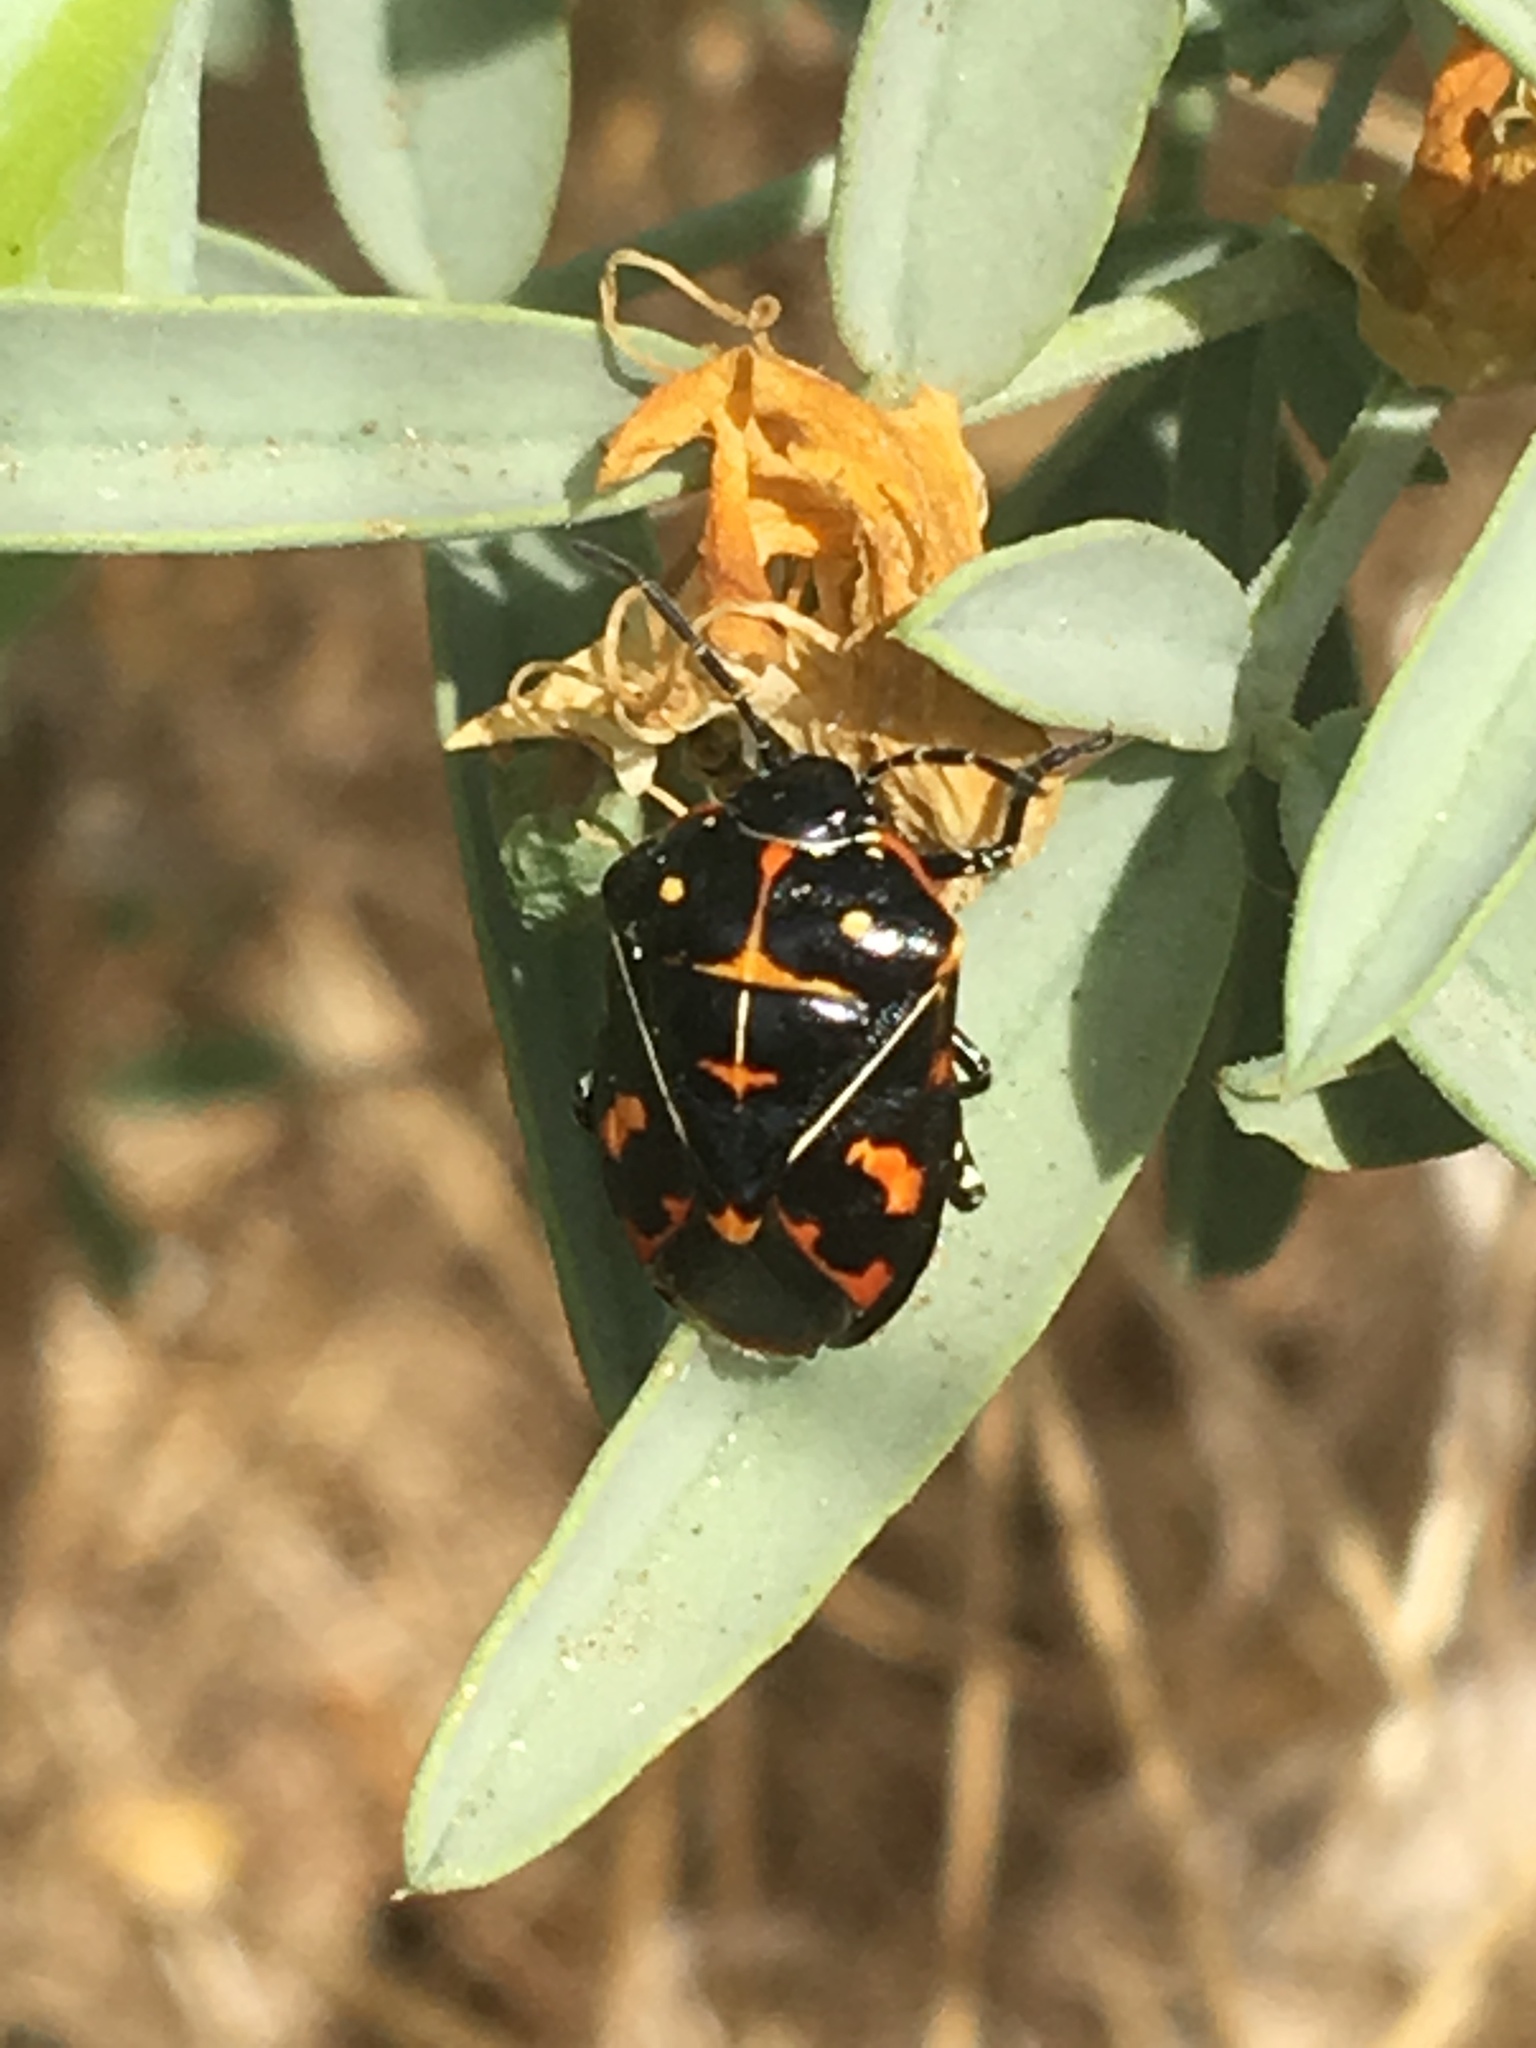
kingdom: Animalia
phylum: Arthropoda
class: Insecta
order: Hemiptera
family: Pentatomidae
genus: Murgantia
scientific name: Murgantia histrionica
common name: Harlequin bug
